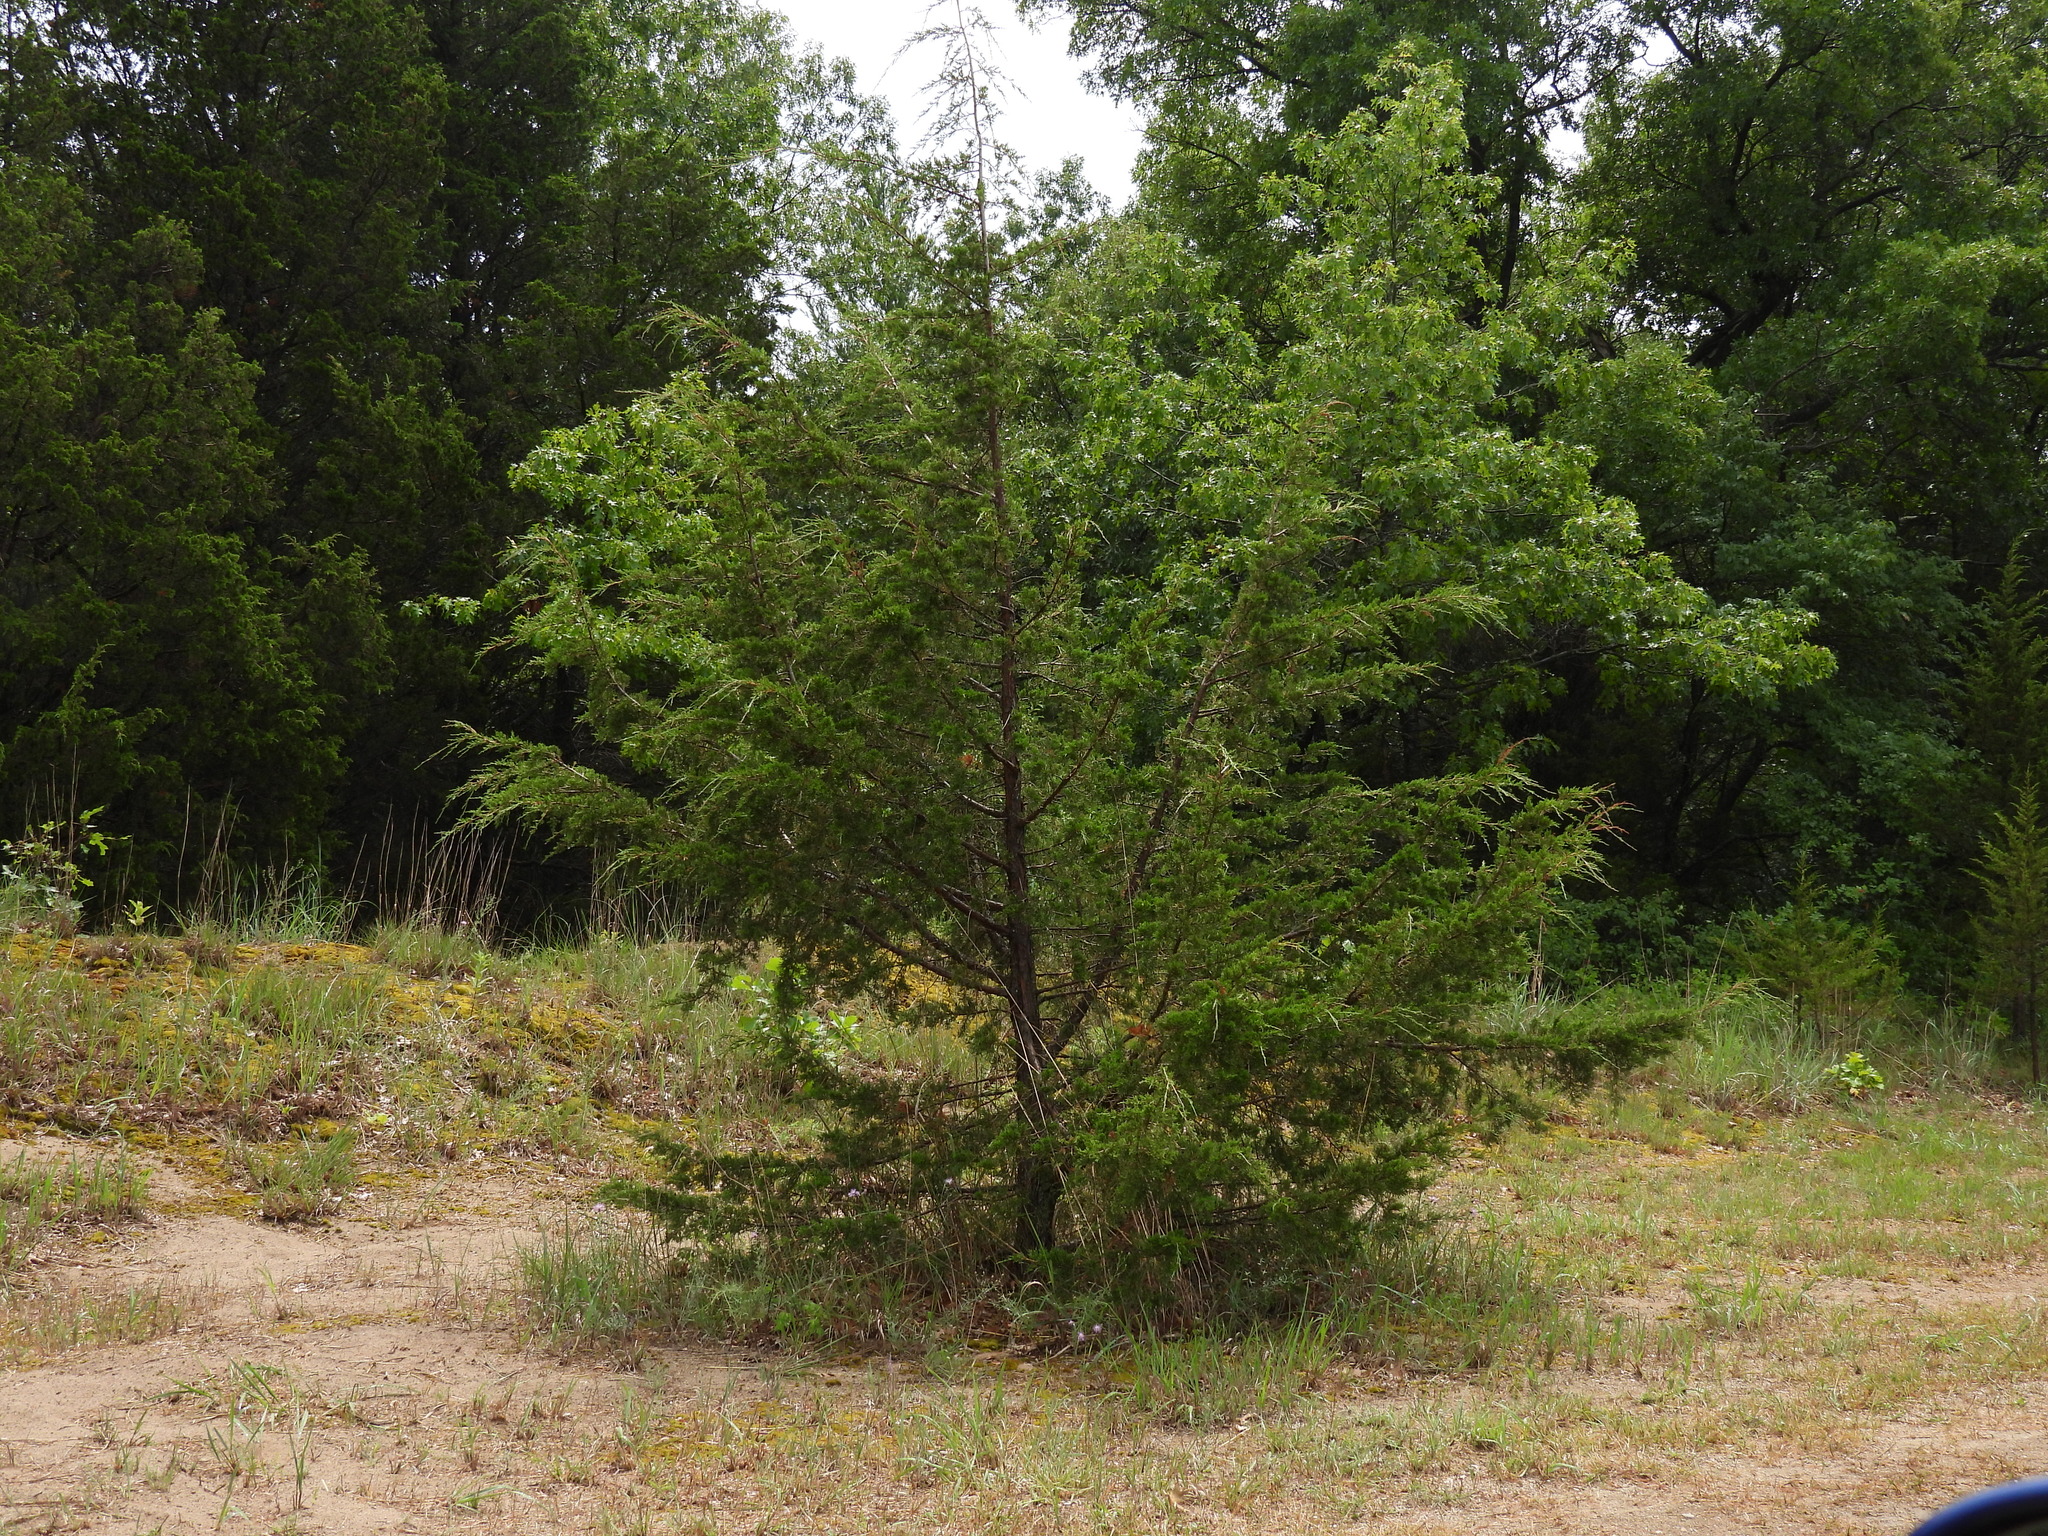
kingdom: Plantae
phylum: Tracheophyta
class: Pinopsida
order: Pinales
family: Cupressaceae
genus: Juniperus
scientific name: Juniperus virginiana
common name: Red juniper
